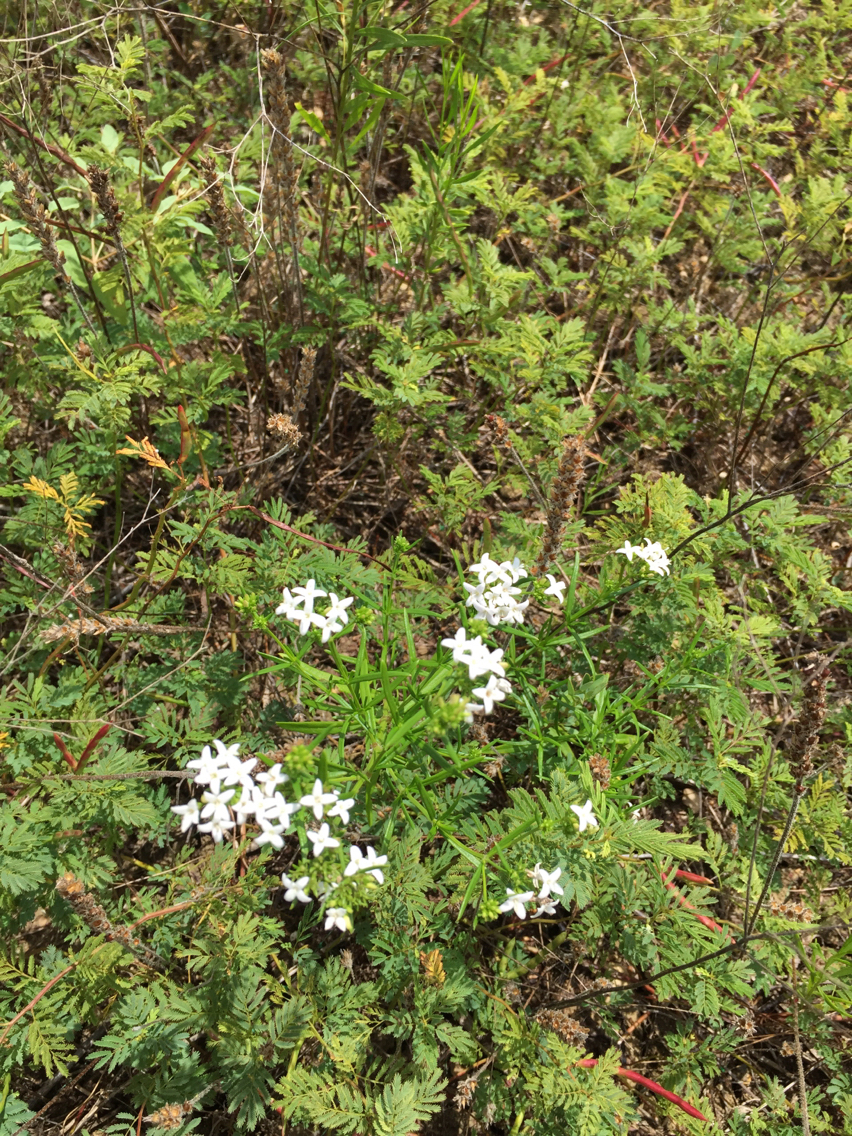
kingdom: Plantae
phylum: Tracheophyta
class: Magnoliopsida
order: Gentianales
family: Rubiaceae
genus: Stenaria
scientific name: Stenaria nigricans
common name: Diamondflowers
